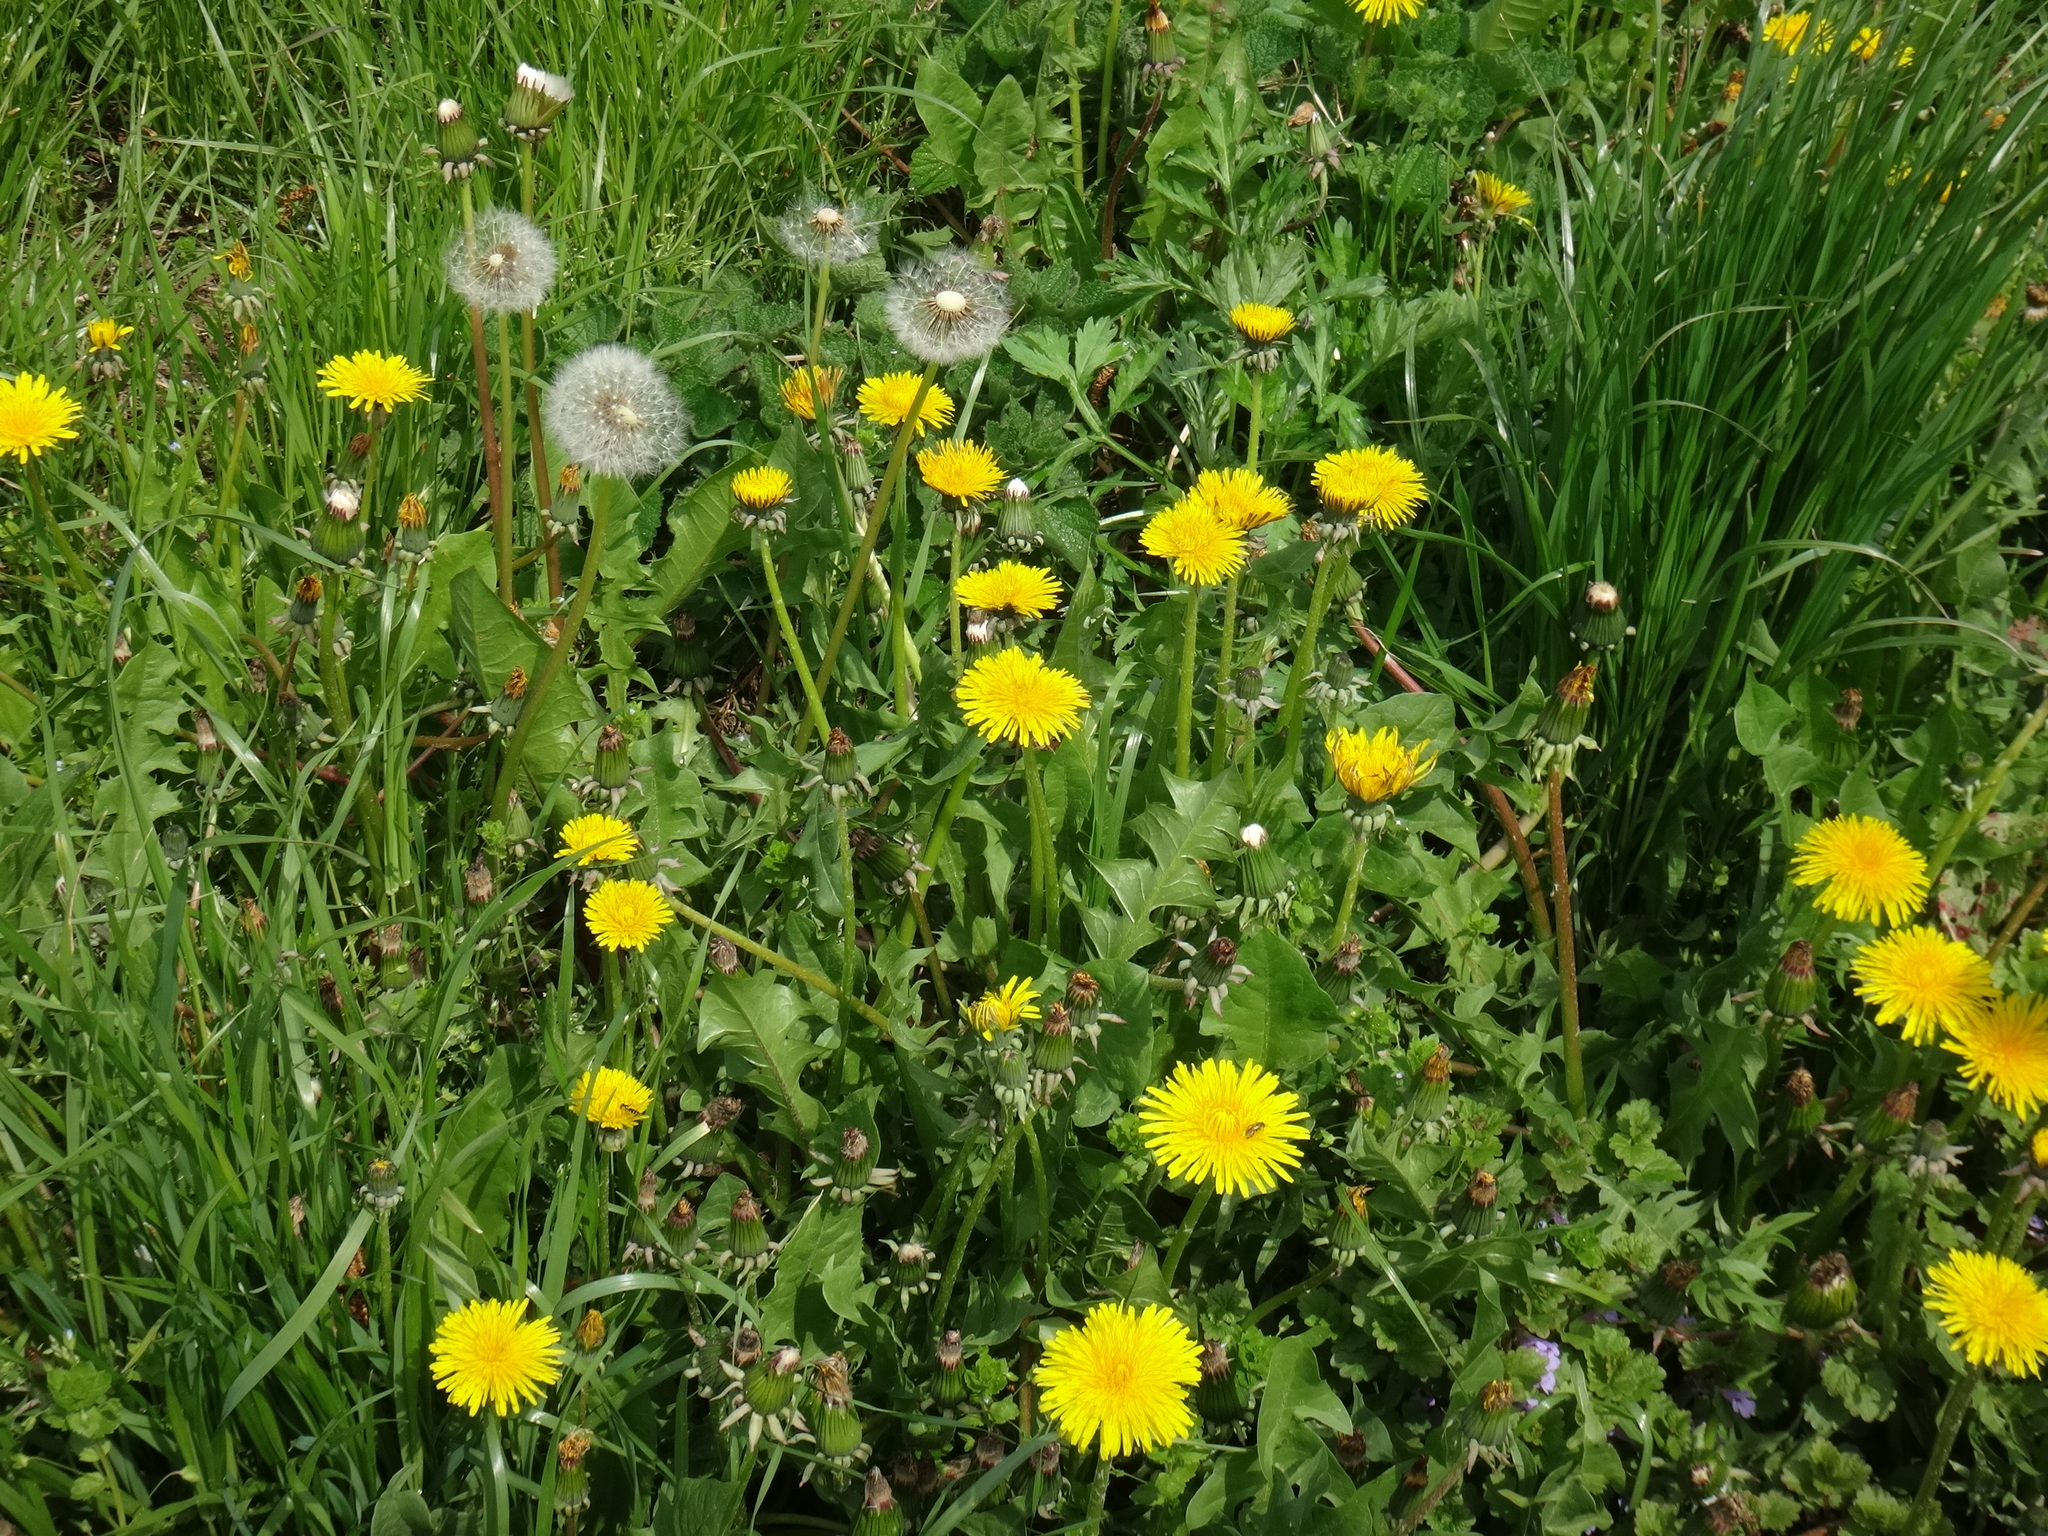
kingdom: Plantae
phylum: Tracheophyta
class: Magnoliopsida
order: Asterales
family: Asteraceae
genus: Taraxacum
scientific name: Taraxacum officinale
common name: Common dandelion
